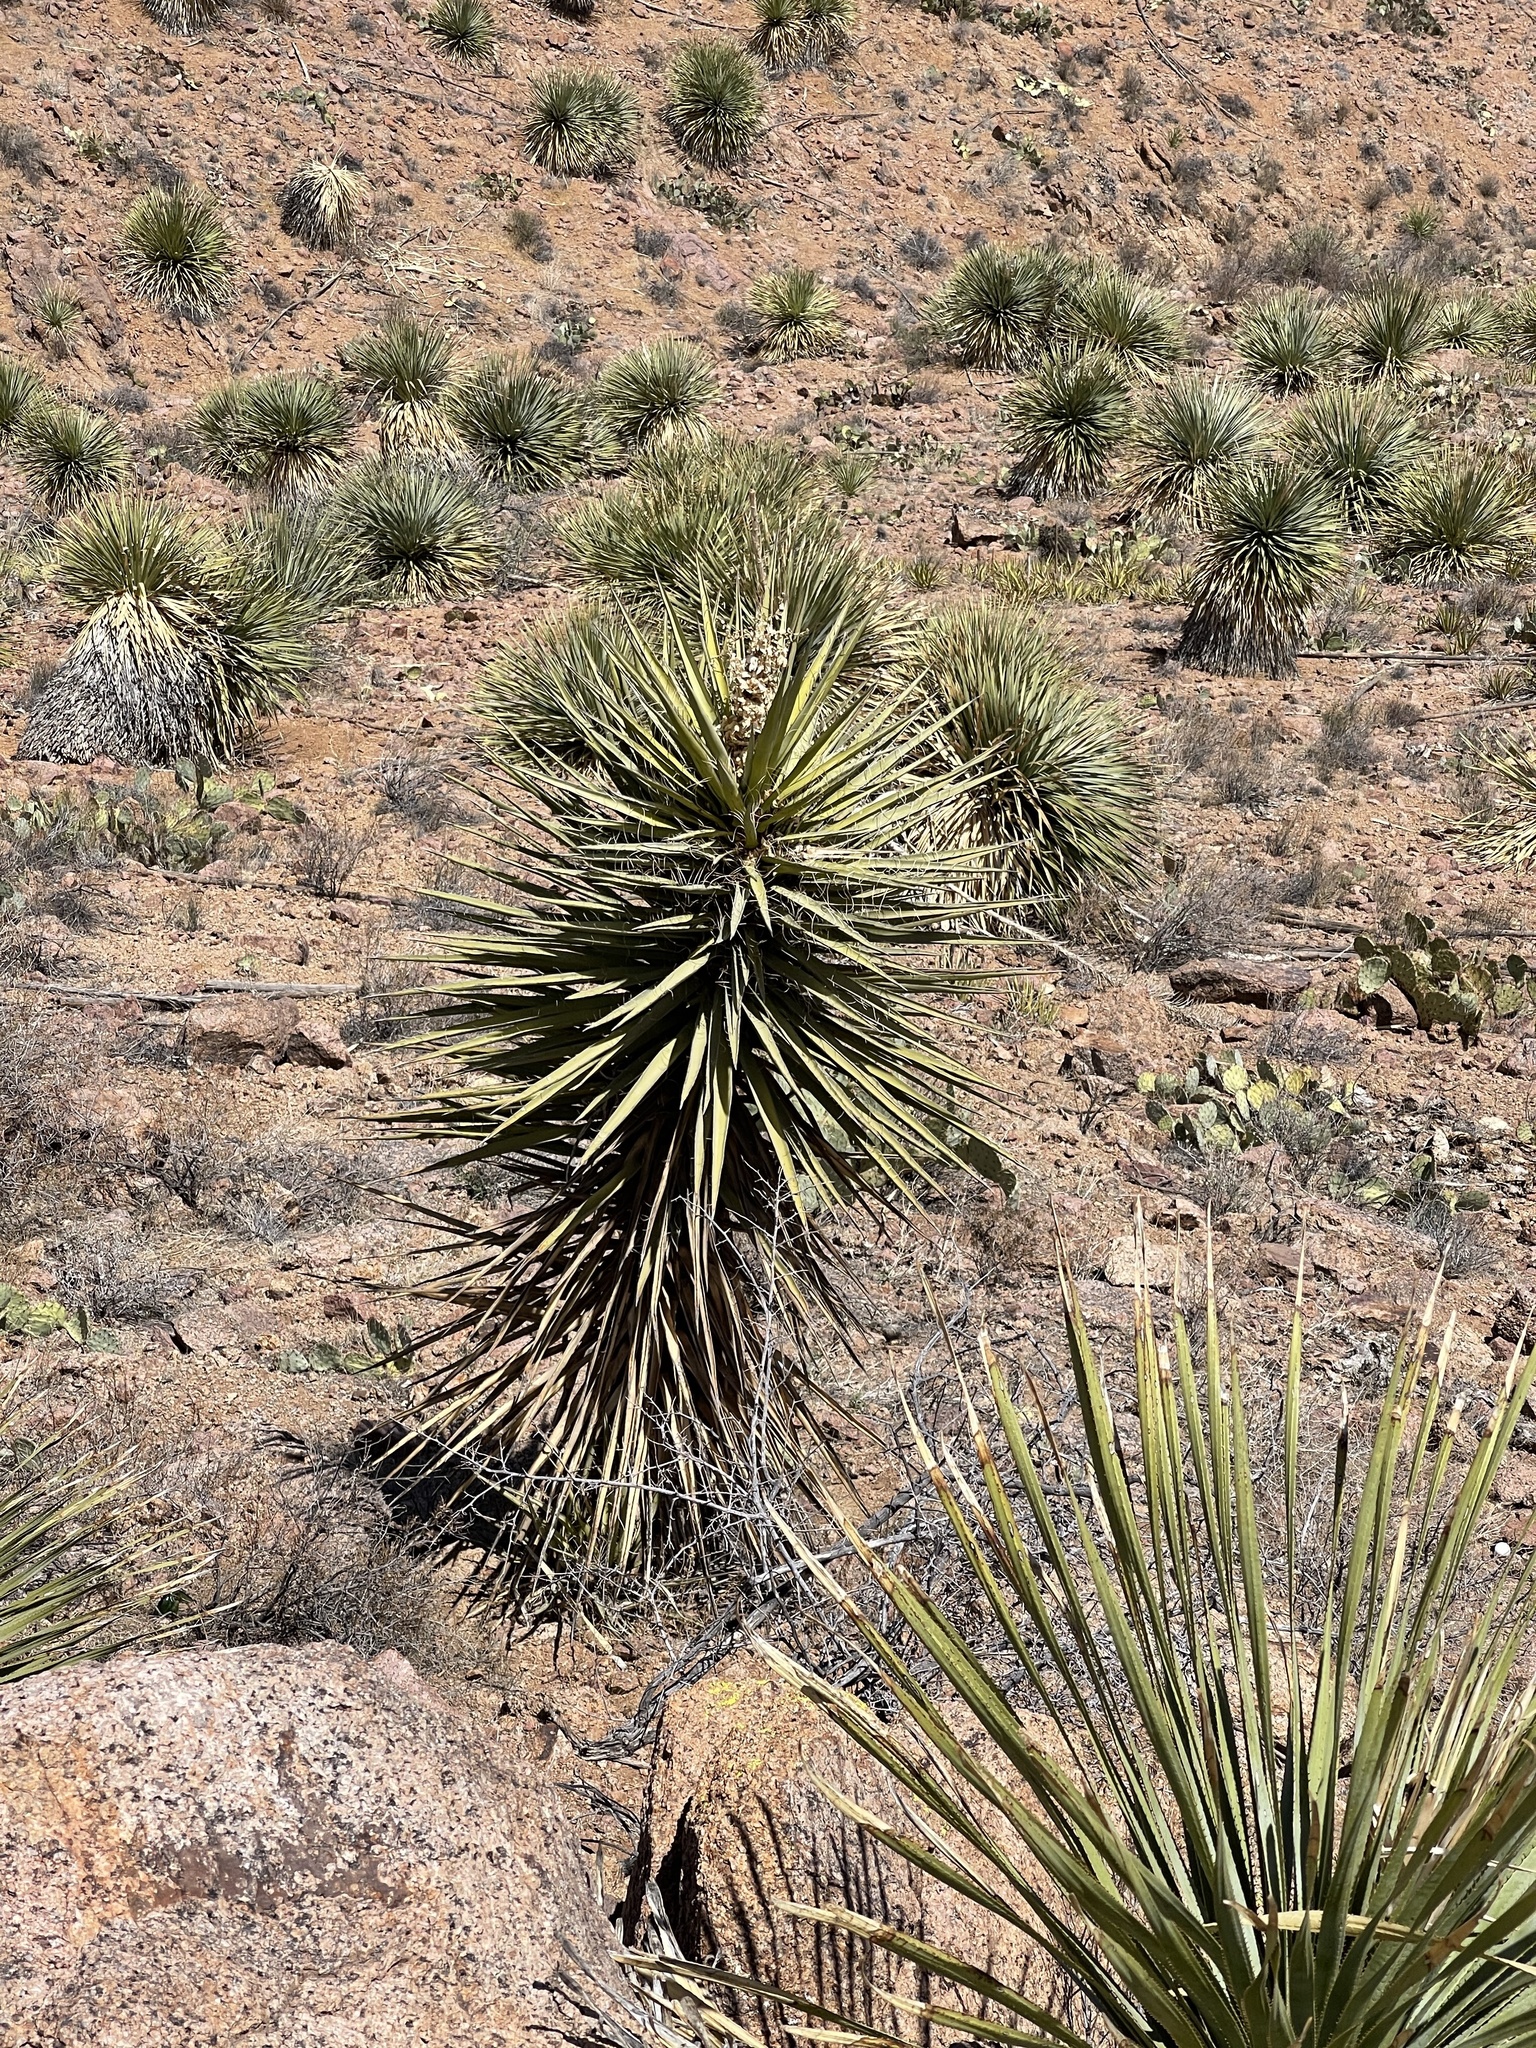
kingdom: Plantae
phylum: Tracheophyta
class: Liliopsida
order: Asparagales
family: Asparagaceae
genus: Yucca
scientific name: Yucca treculiana
